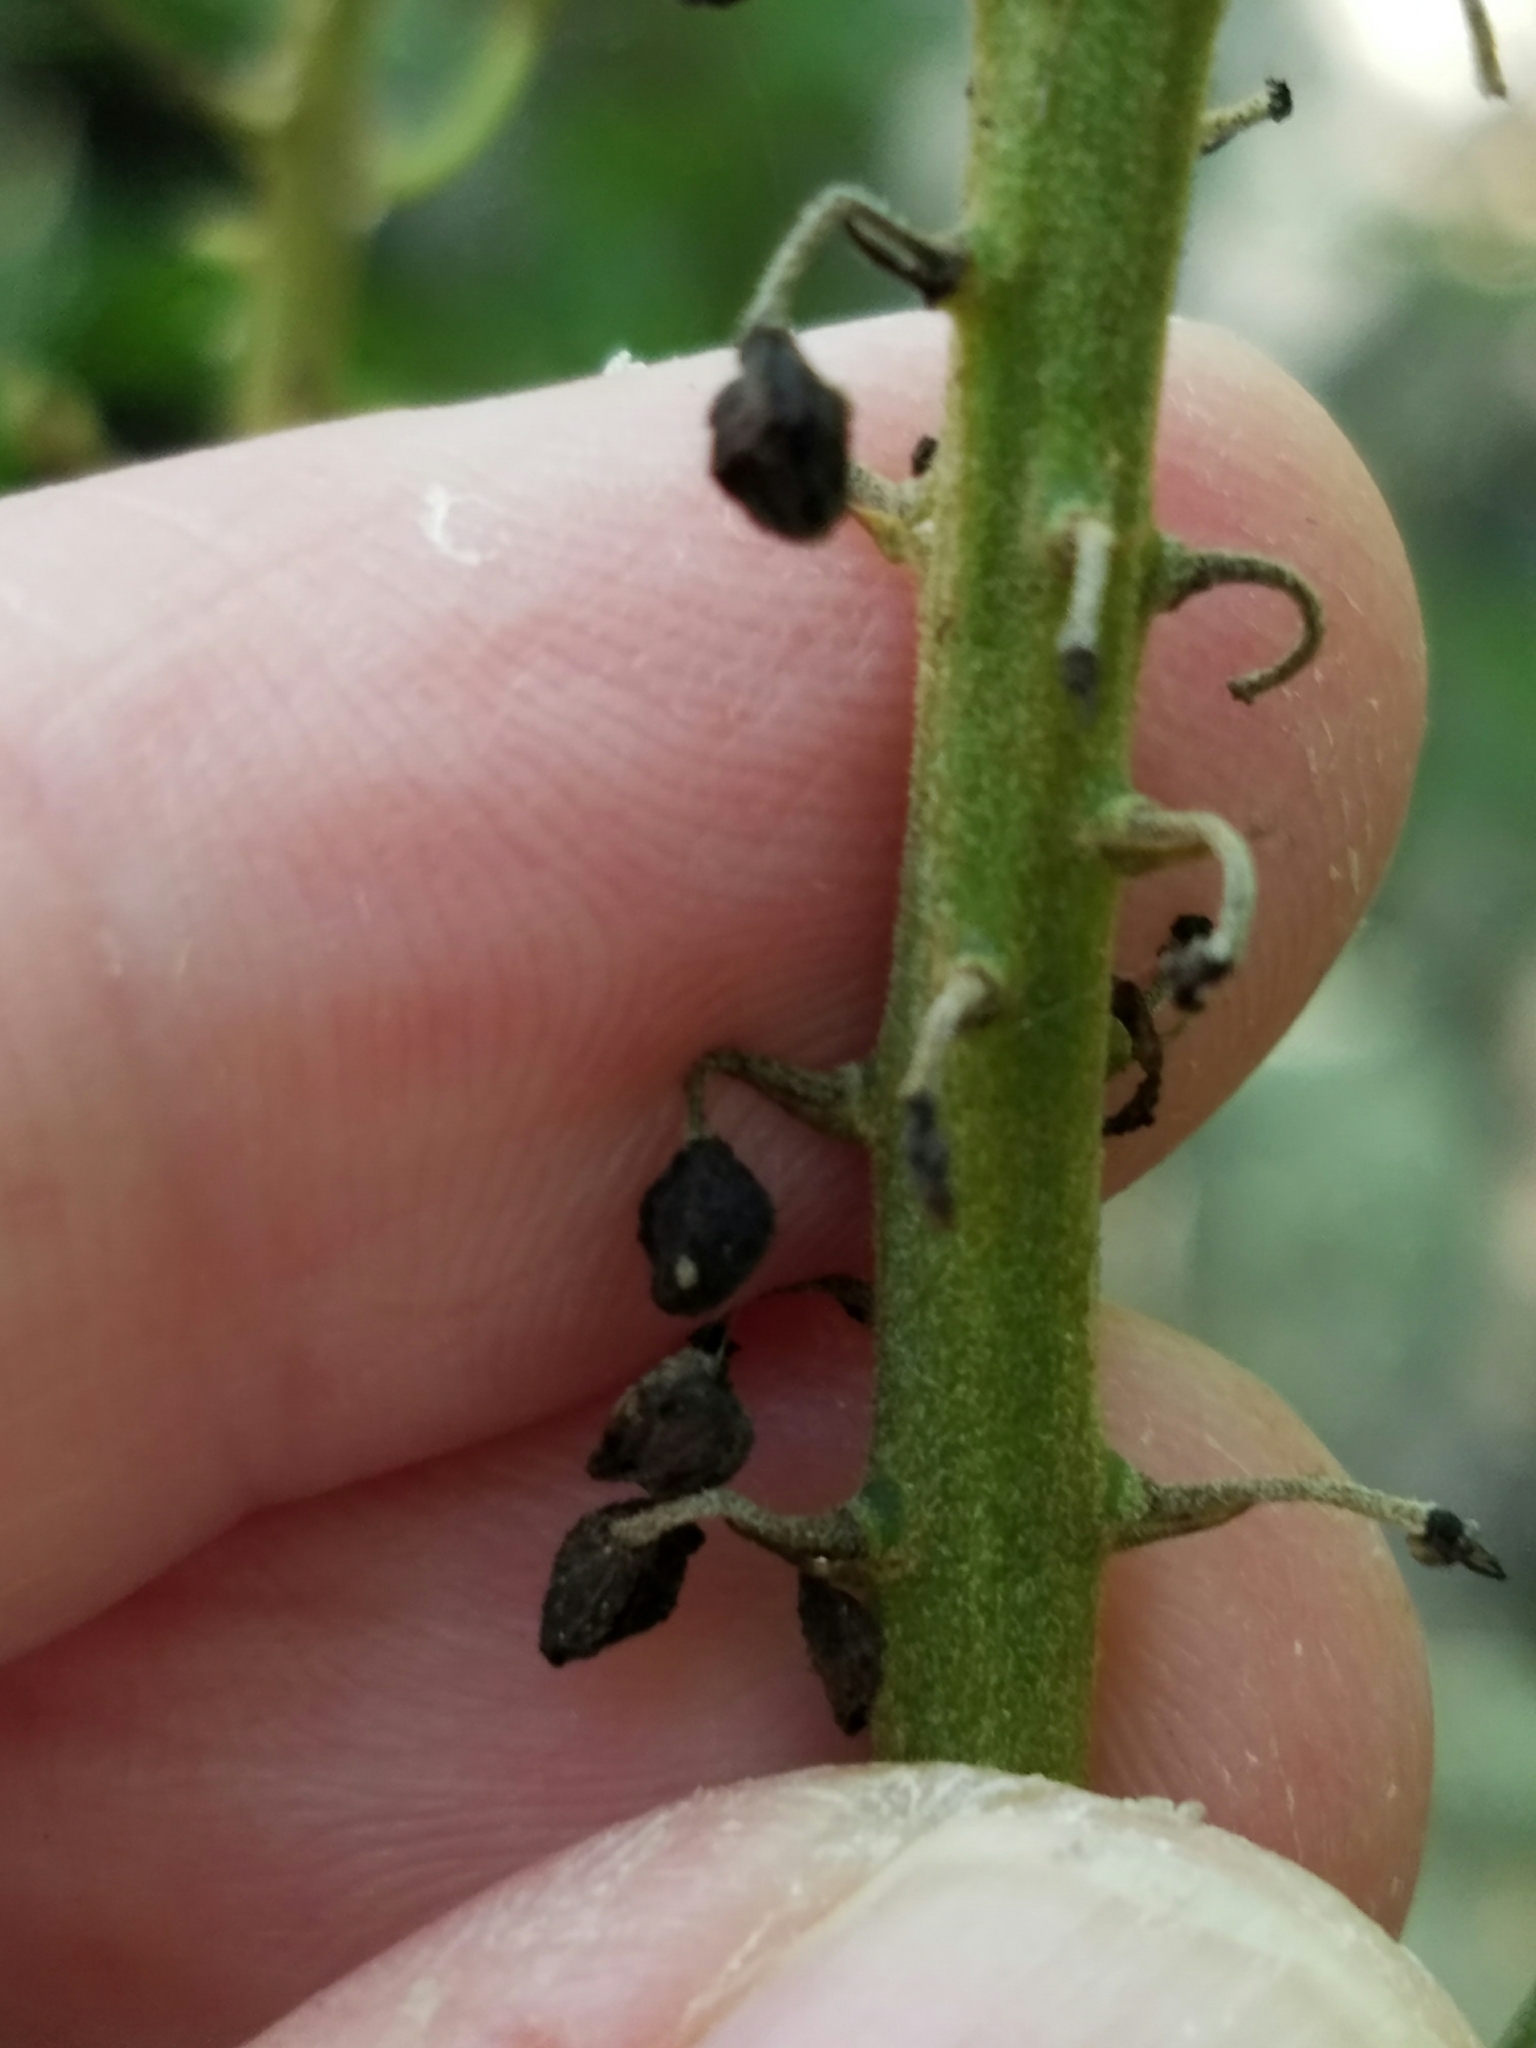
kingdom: Plantae
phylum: Tracheophyta
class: Magnoliopsida
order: Ranunculales
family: Ranunculaceae
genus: Actaea
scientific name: Actaea racemosa
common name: Black cohosh
